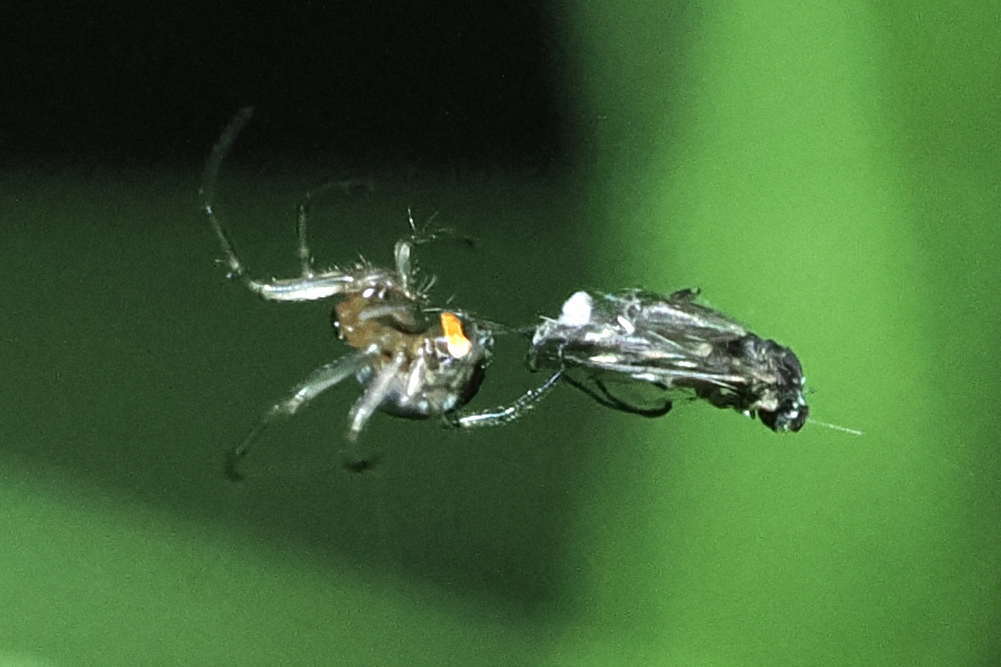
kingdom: Animalia
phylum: Arthropoda
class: Arachnida
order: Araneae
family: Tetragnathidae
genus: Leucauge
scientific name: Leucauge venusta
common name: Longjawed orb weavers
